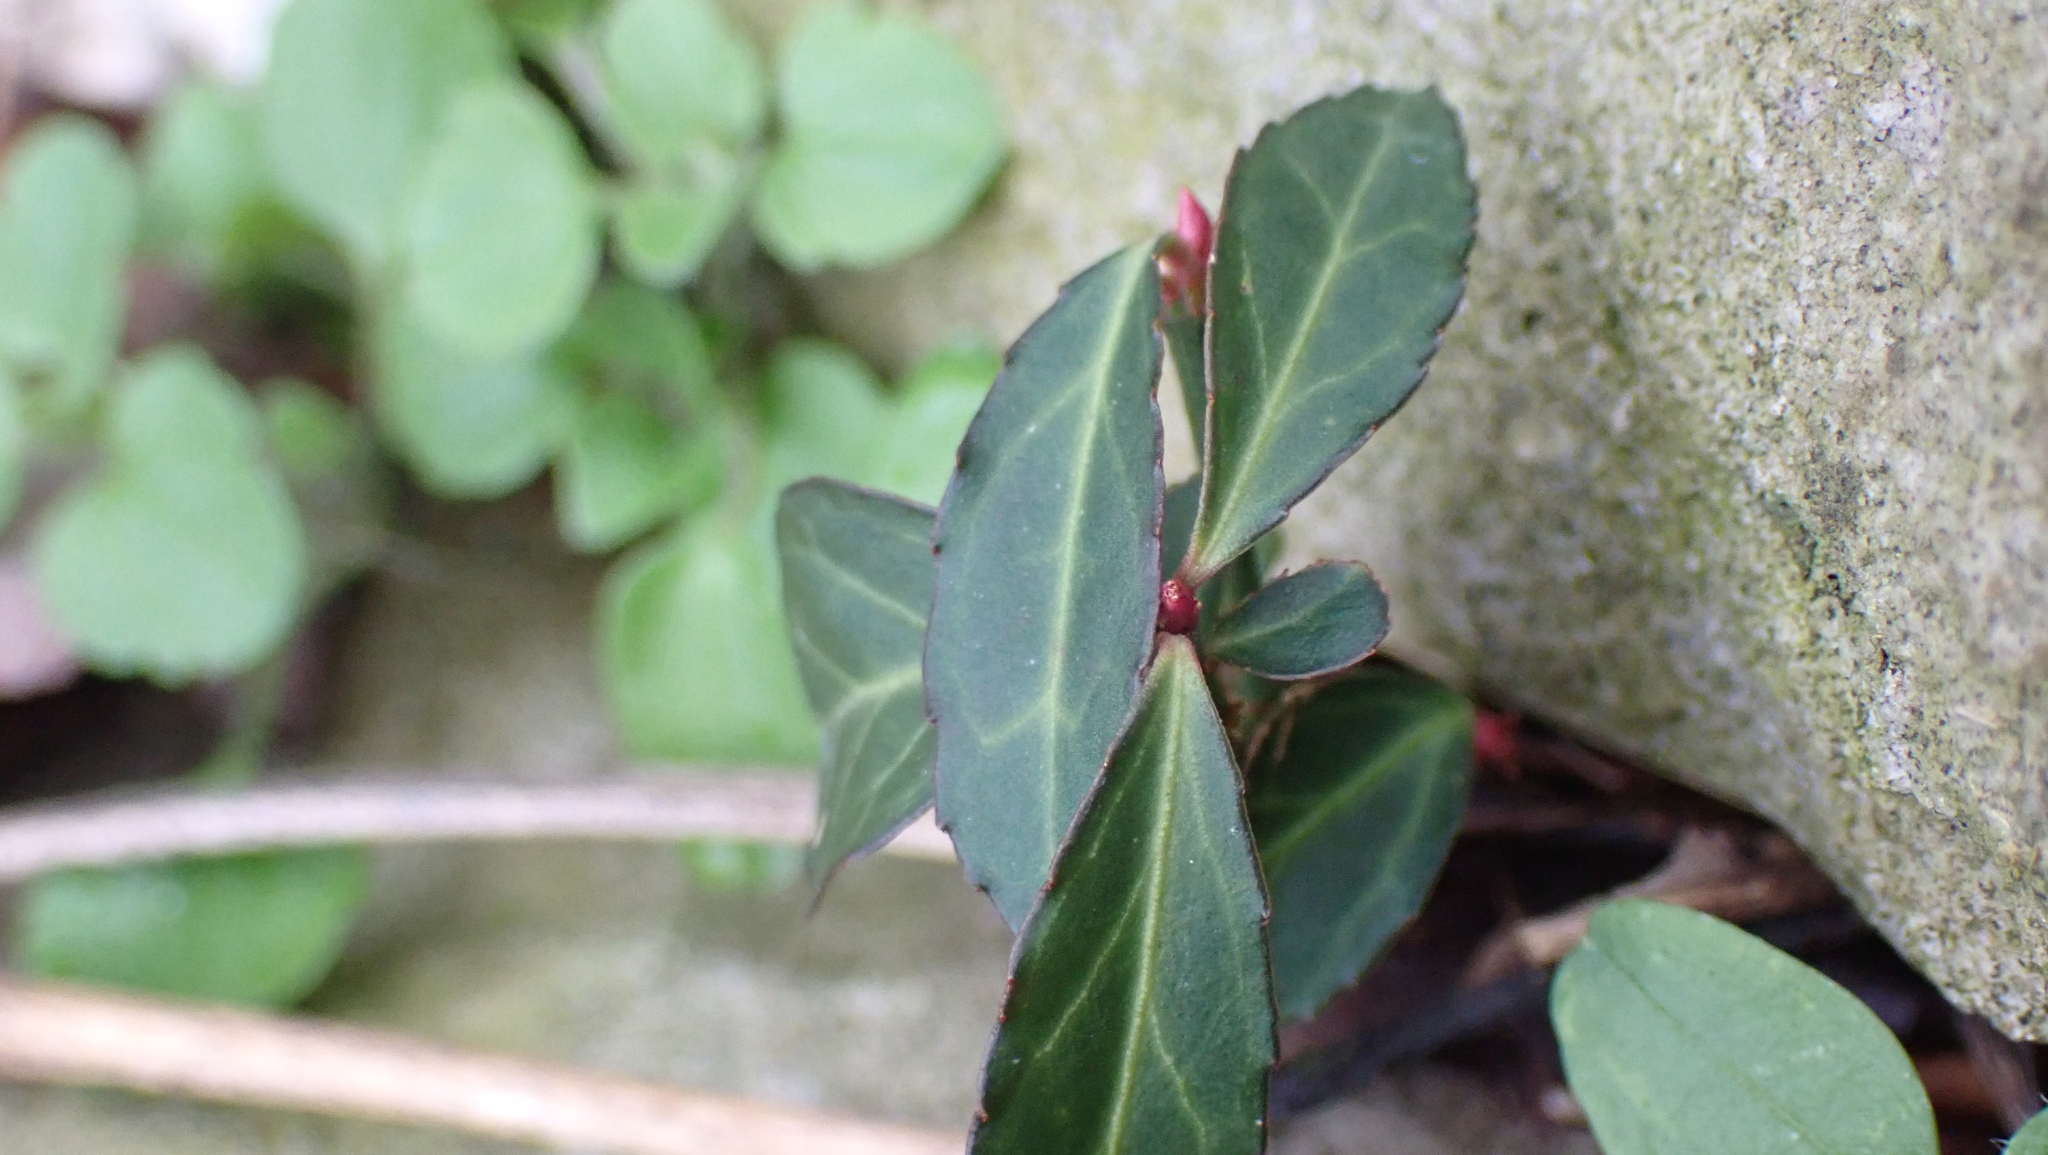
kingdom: Plantae
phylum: Tracheophyta
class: Magnoliopsida
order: Celastrales
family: Celastraceae
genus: Euonymus
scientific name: Euonymus fortunei
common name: Climbing euonymus
